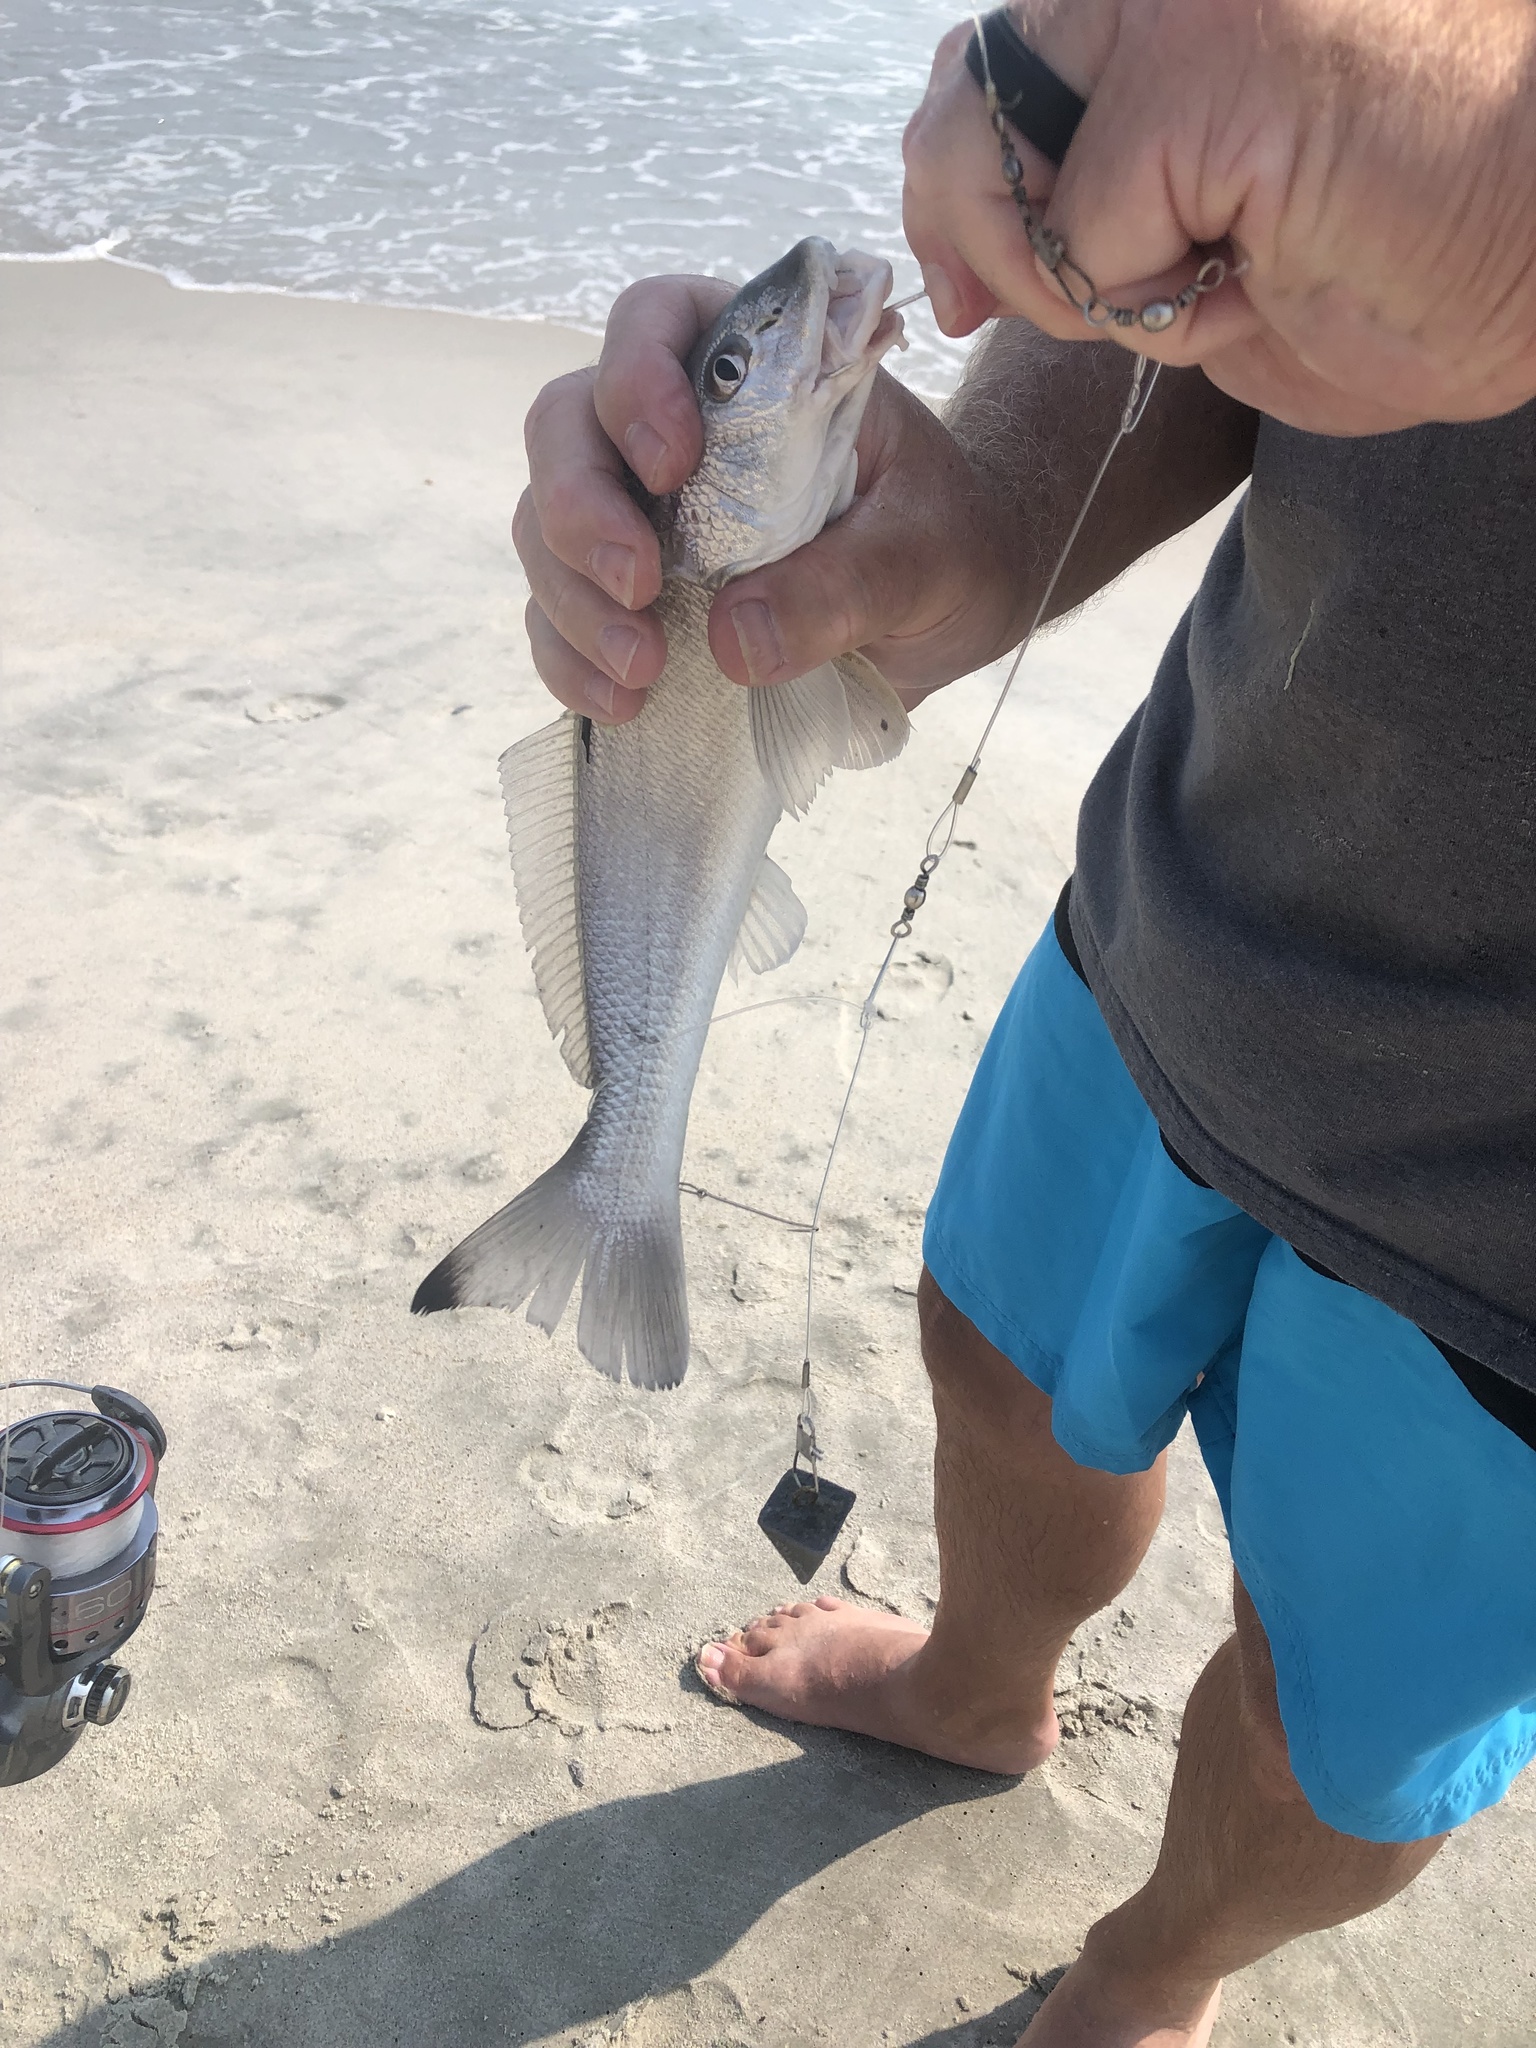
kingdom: Animalia
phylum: Chordata
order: Perciformes
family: Sciaenidae
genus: Menticirrhus
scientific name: Menticirrhus littoralis
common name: Gulf kingcroaker
